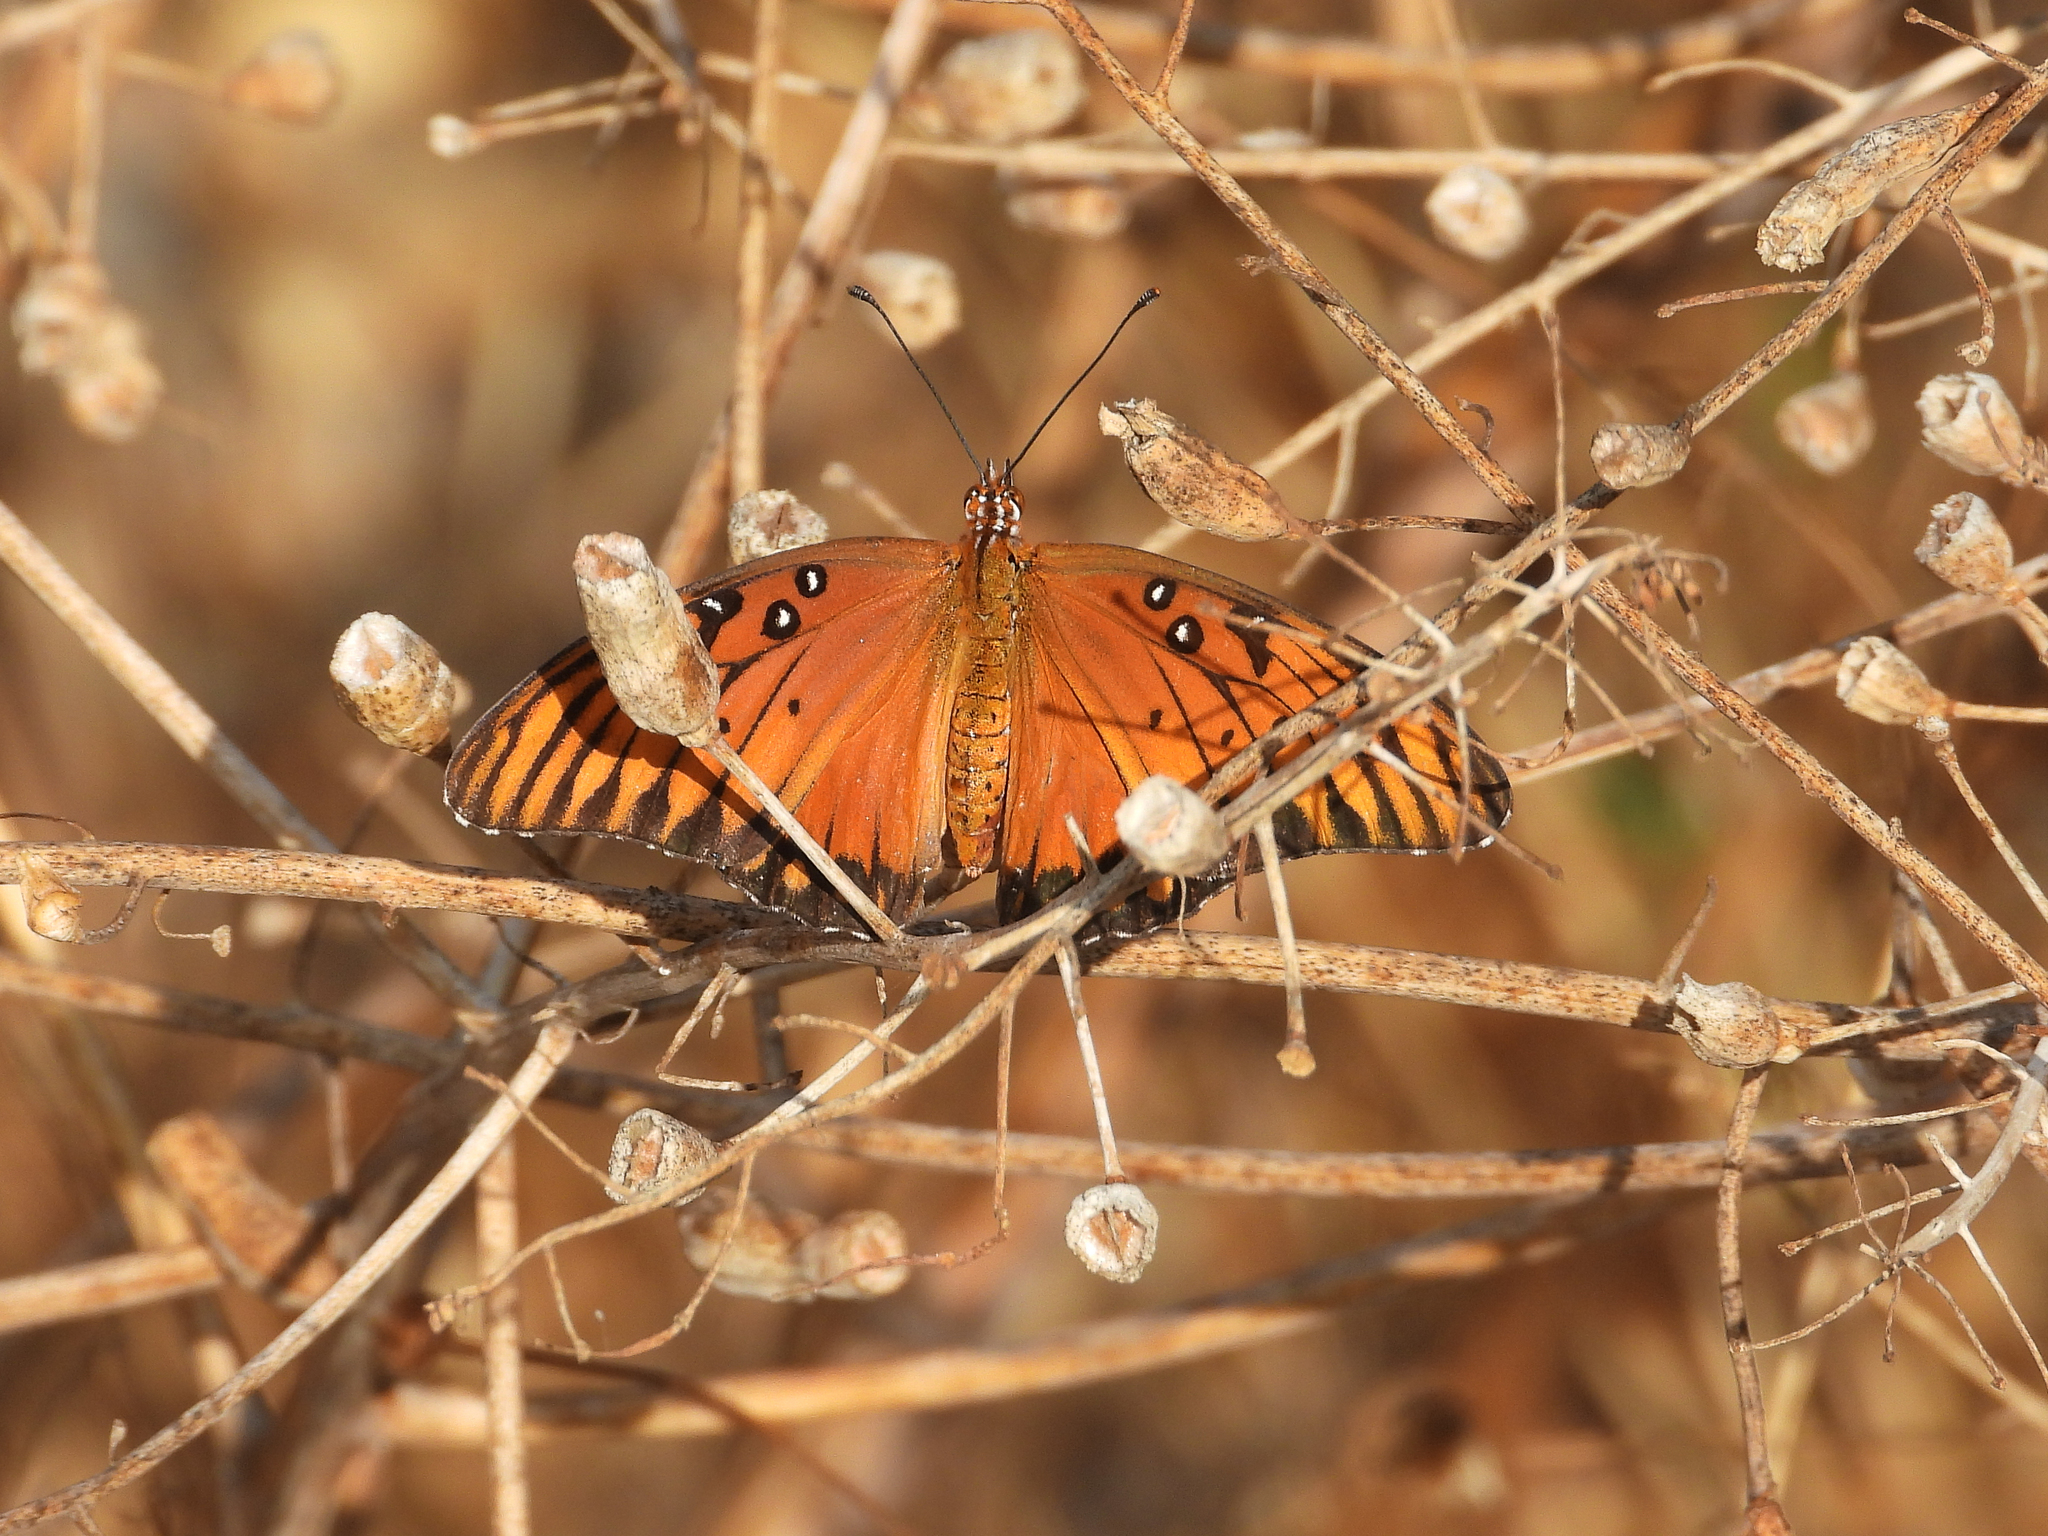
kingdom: Animalia
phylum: Arthropoda
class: Insecta
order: Lepidoptera
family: Nymphalidae
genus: Dione
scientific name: Dione vanillae
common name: Gulf fritillary
